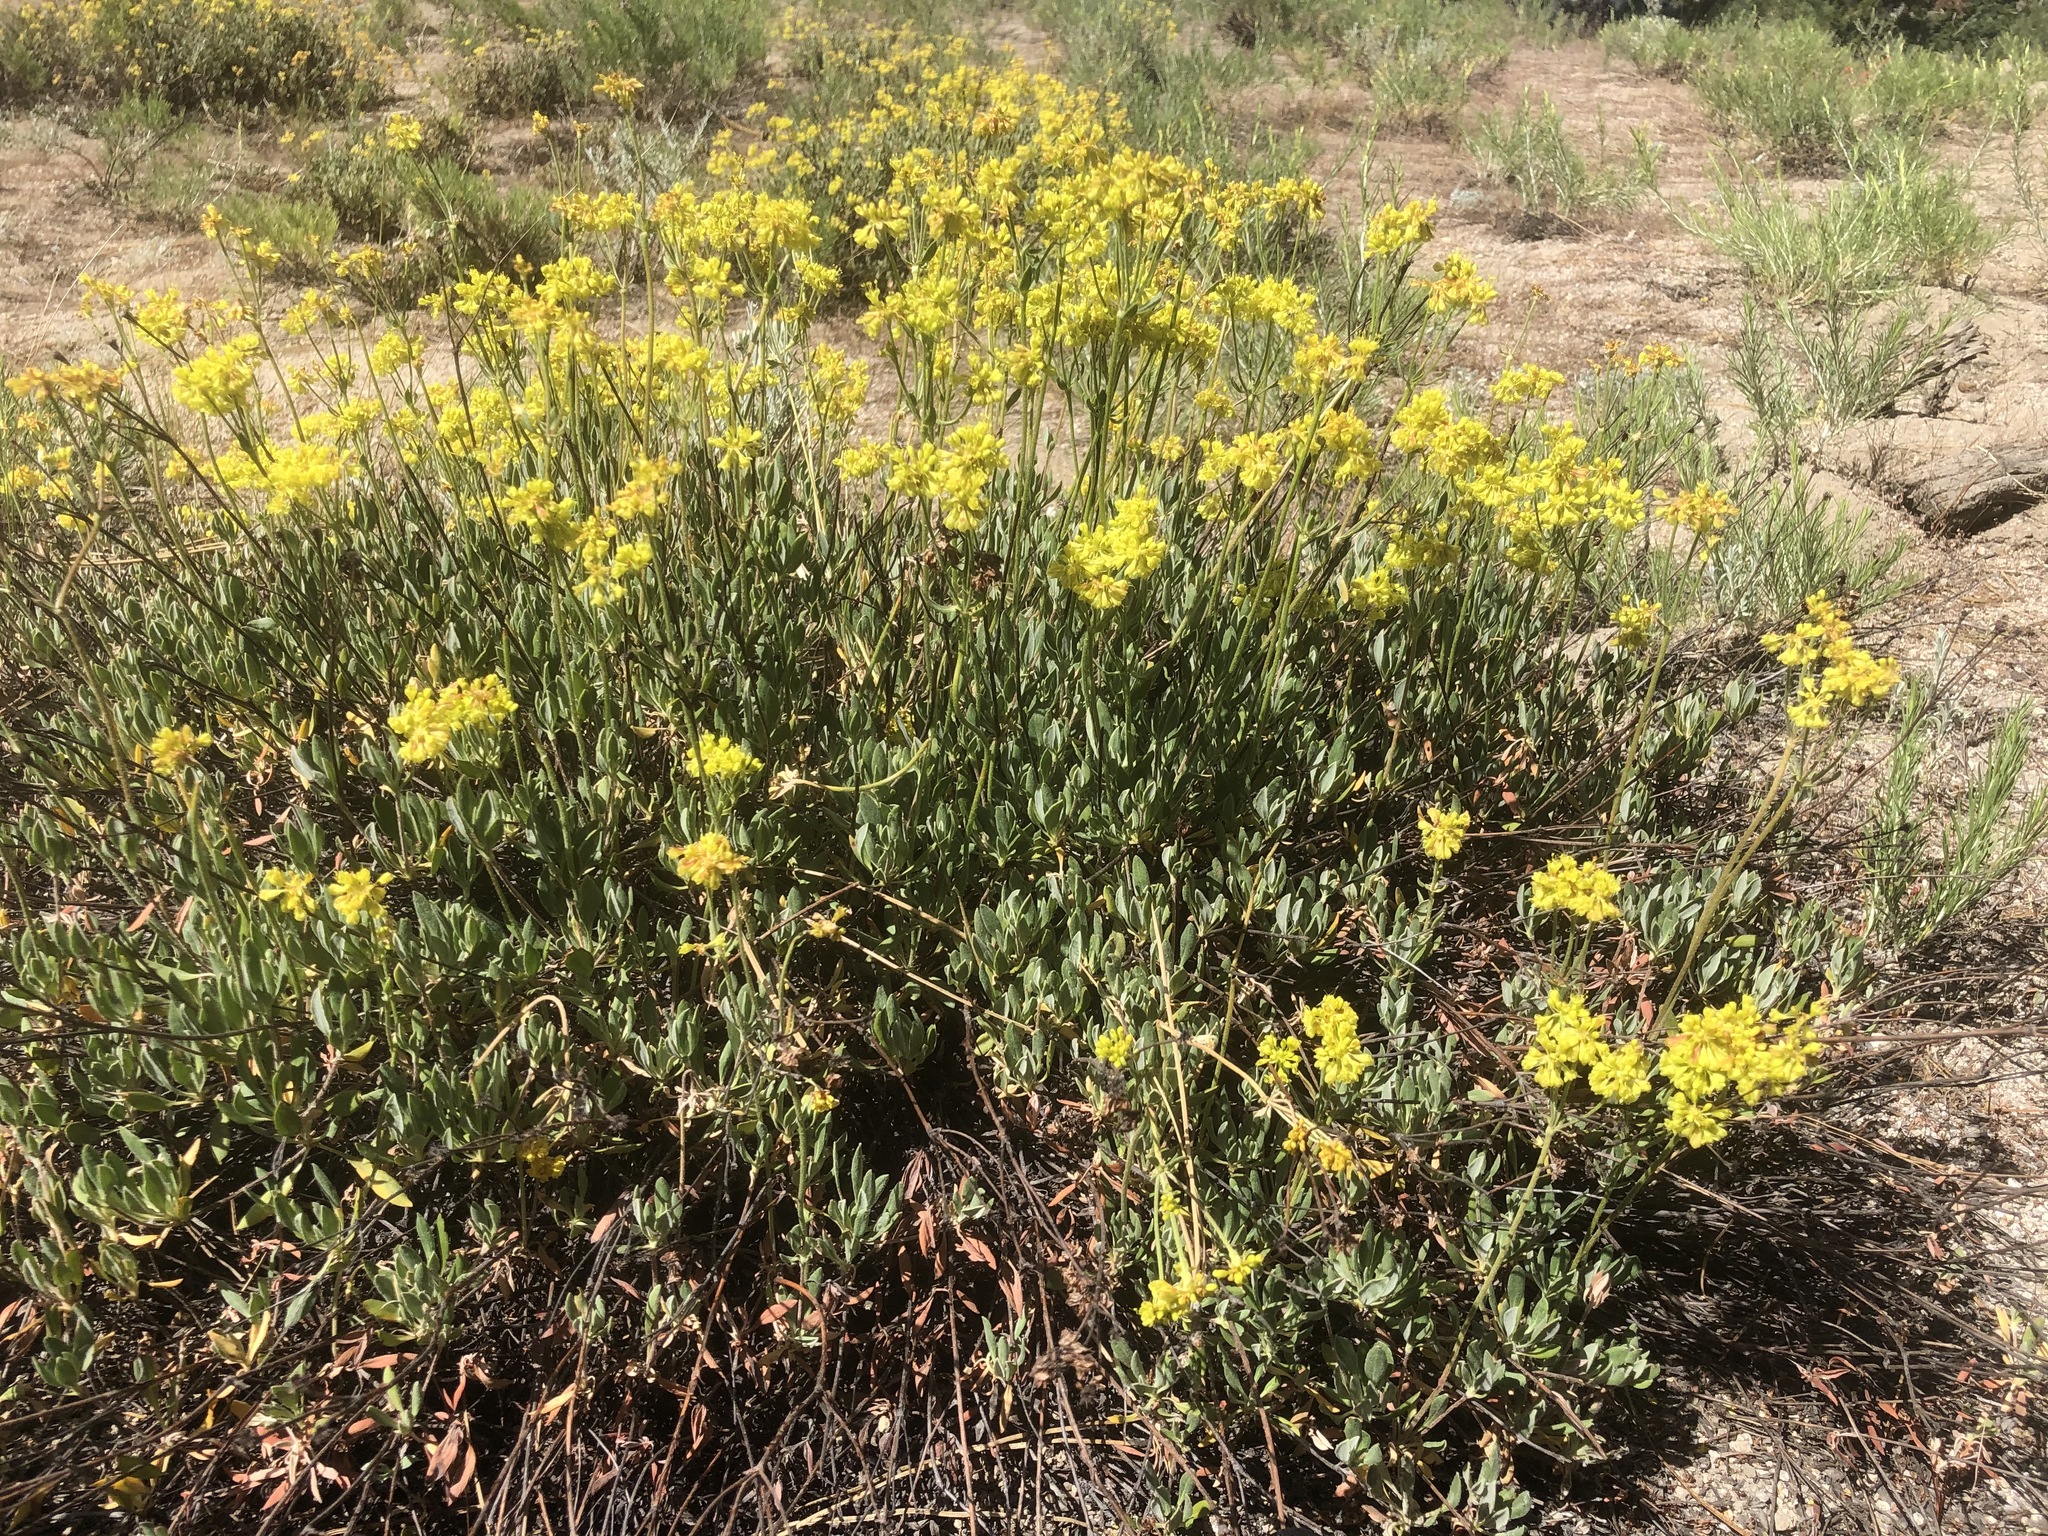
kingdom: Plantae
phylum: Tracheophyta
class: Magnoliopsida
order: Caryophyllales
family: Polygonaceae
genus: Eriogonum
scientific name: Eriogonum umbellatum
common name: Sulfur-buckwheat
